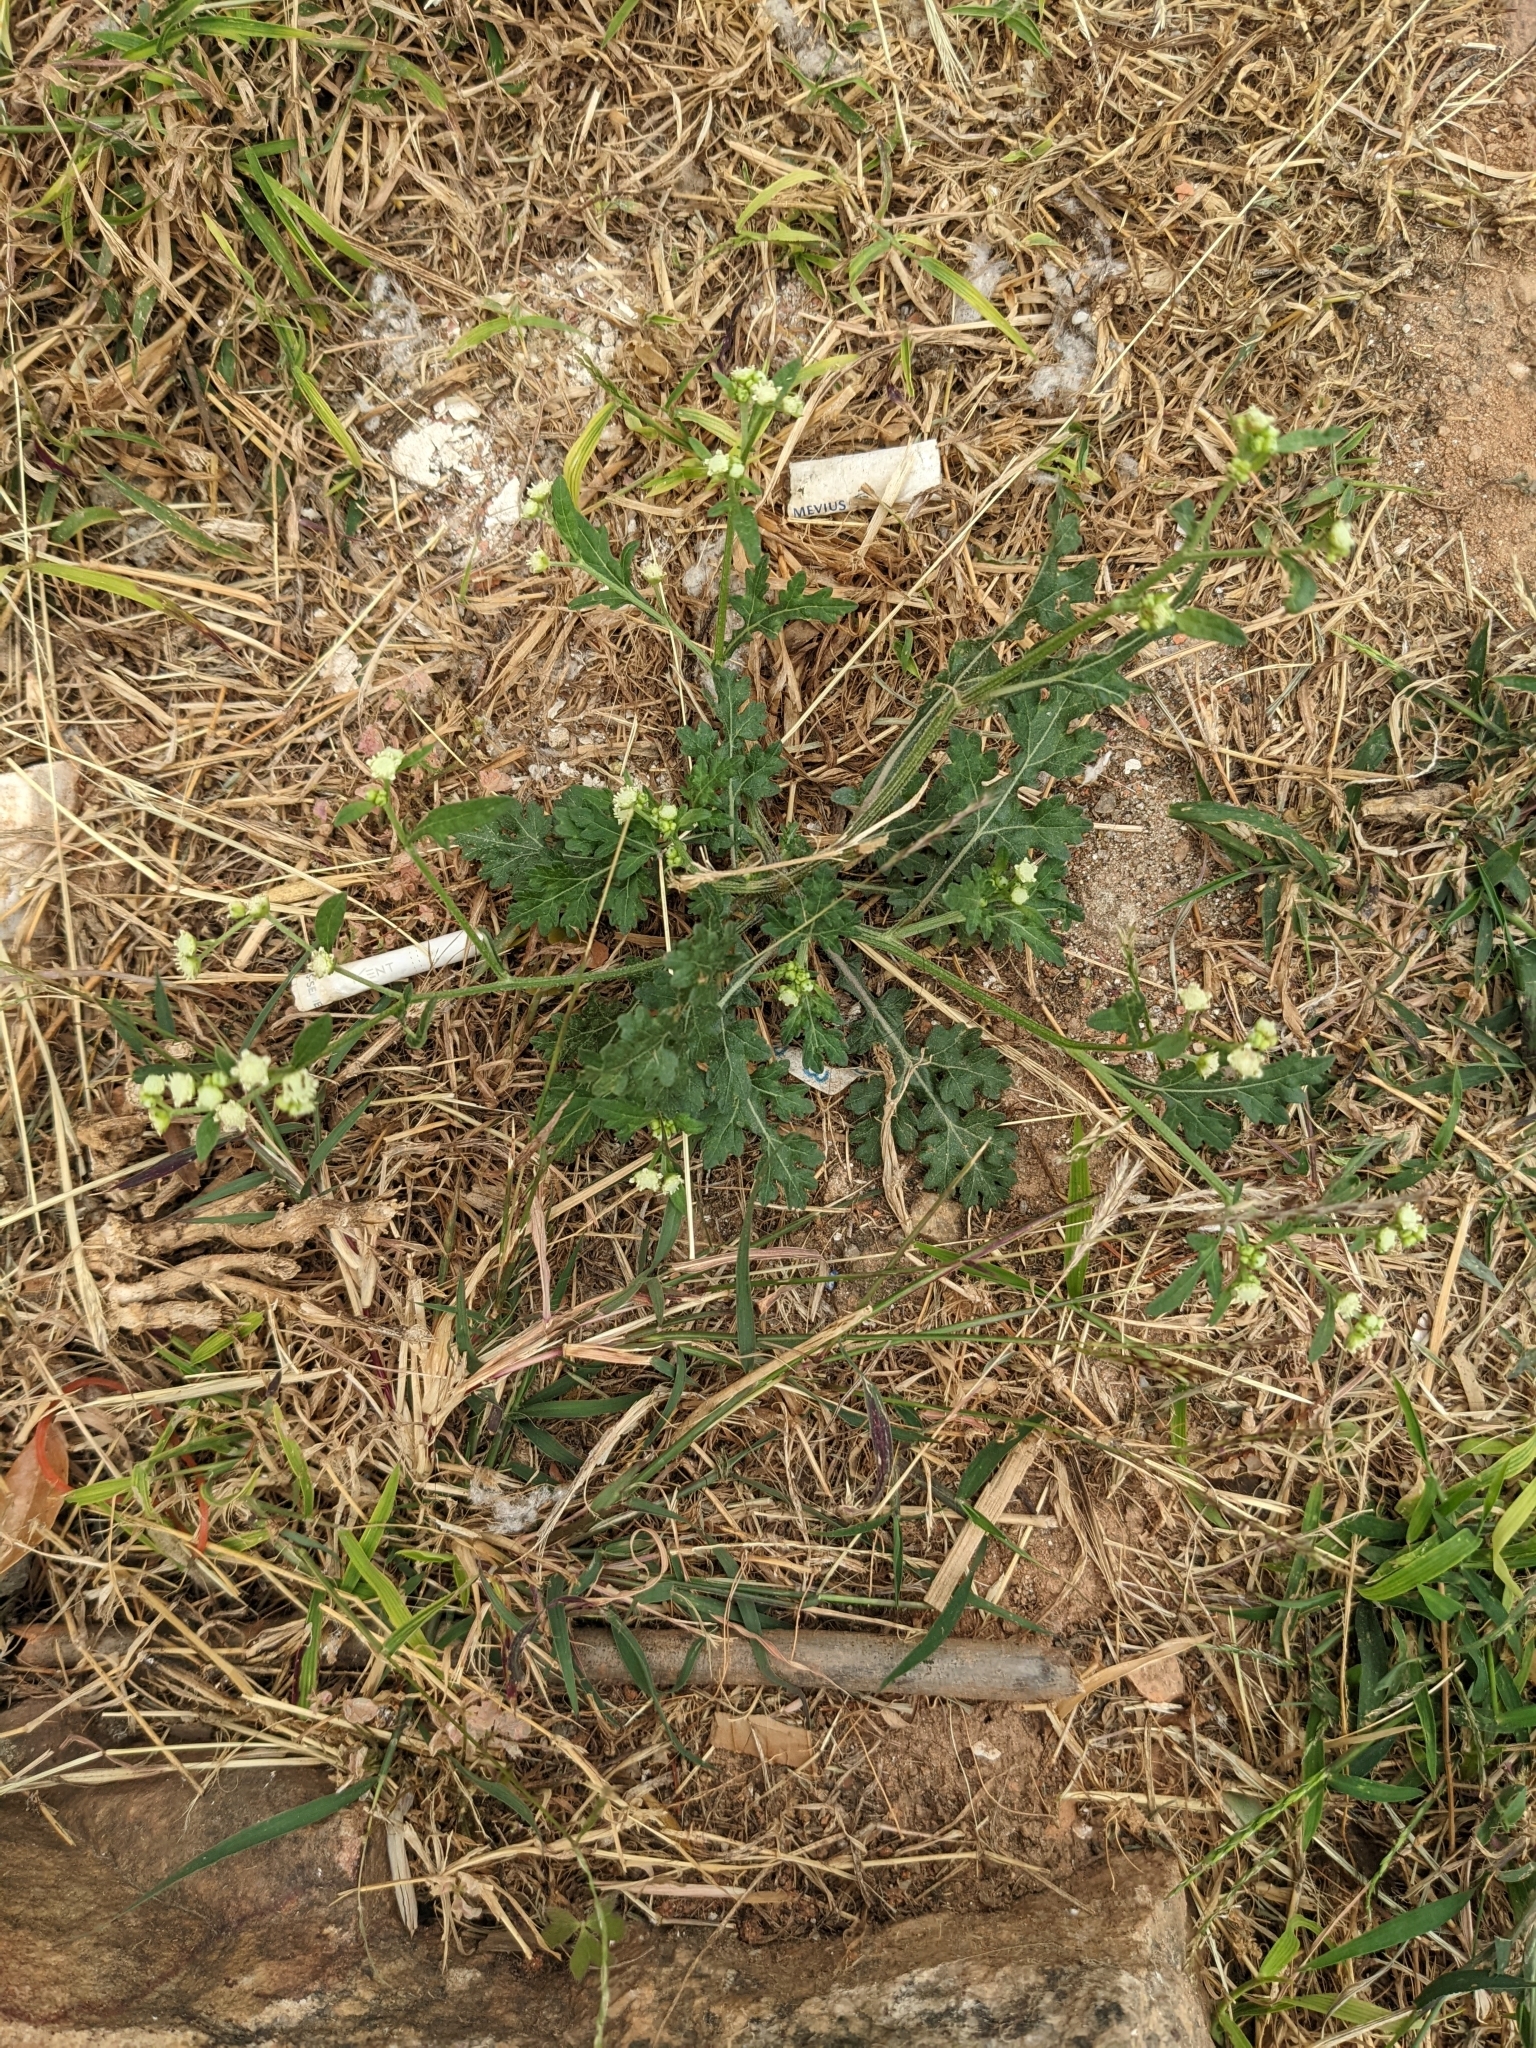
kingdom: Plantae
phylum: Tracheophyta
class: Magnoliopsida
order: Asterales
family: Asteraceae
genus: Parthenium
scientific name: Parthenium hysterophorus
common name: Santa maria feverfew
